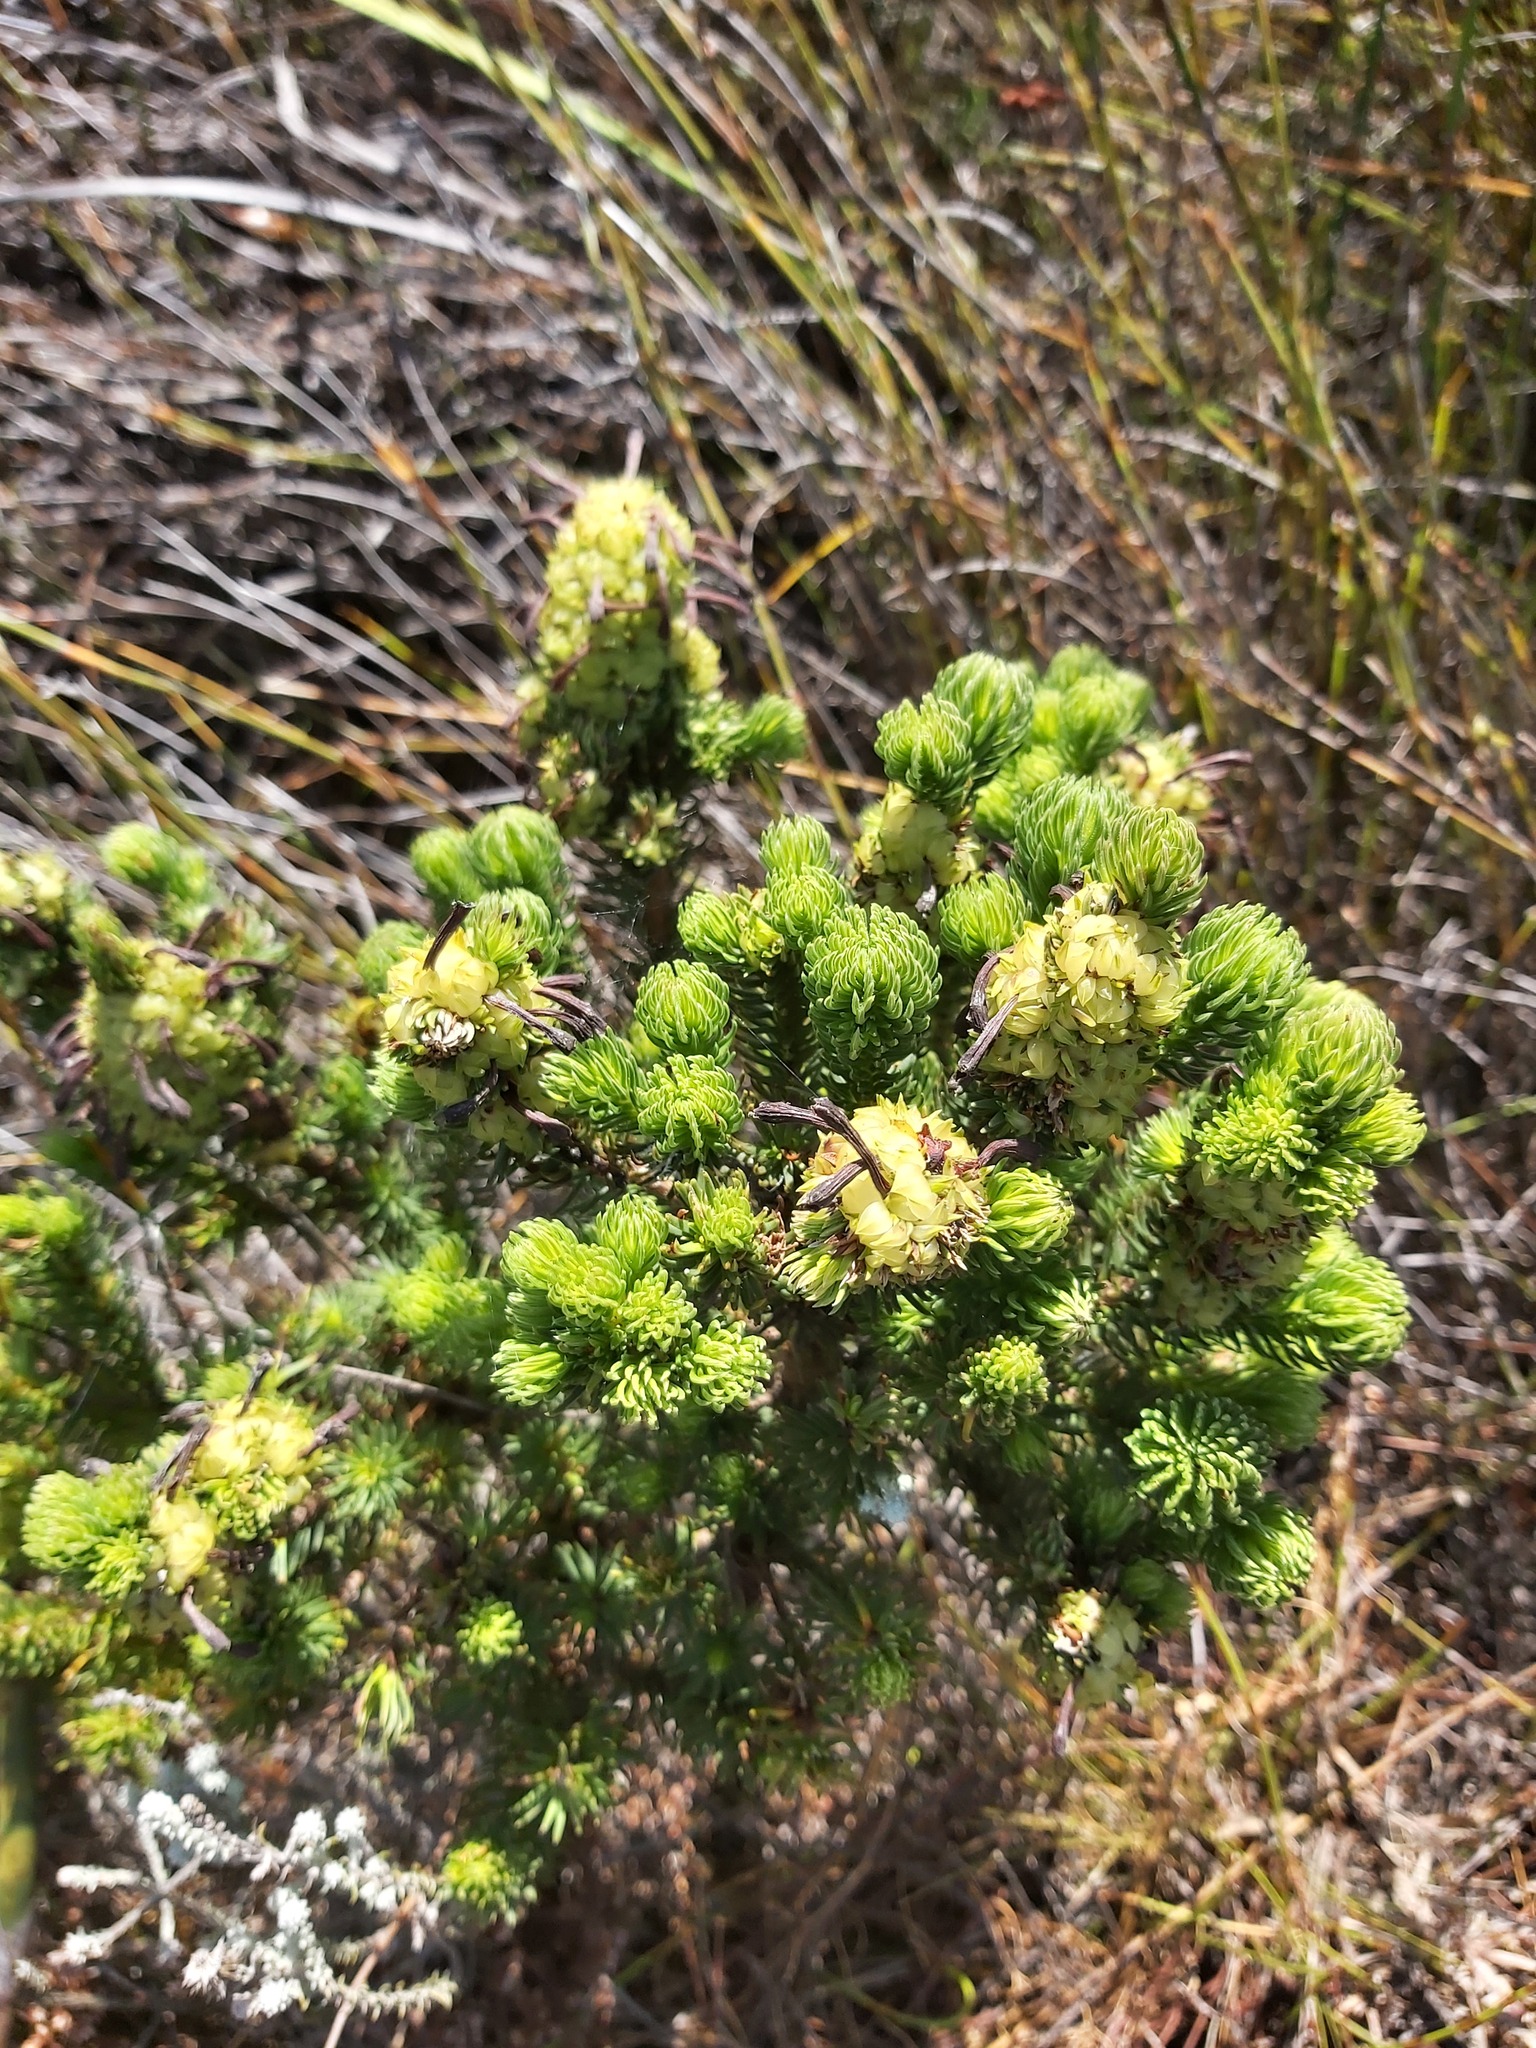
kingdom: Plantae
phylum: Tracheophyta
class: Magnoliopsida
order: Ericales
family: Ericaceae
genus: Erica
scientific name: Erica sessiliflora
